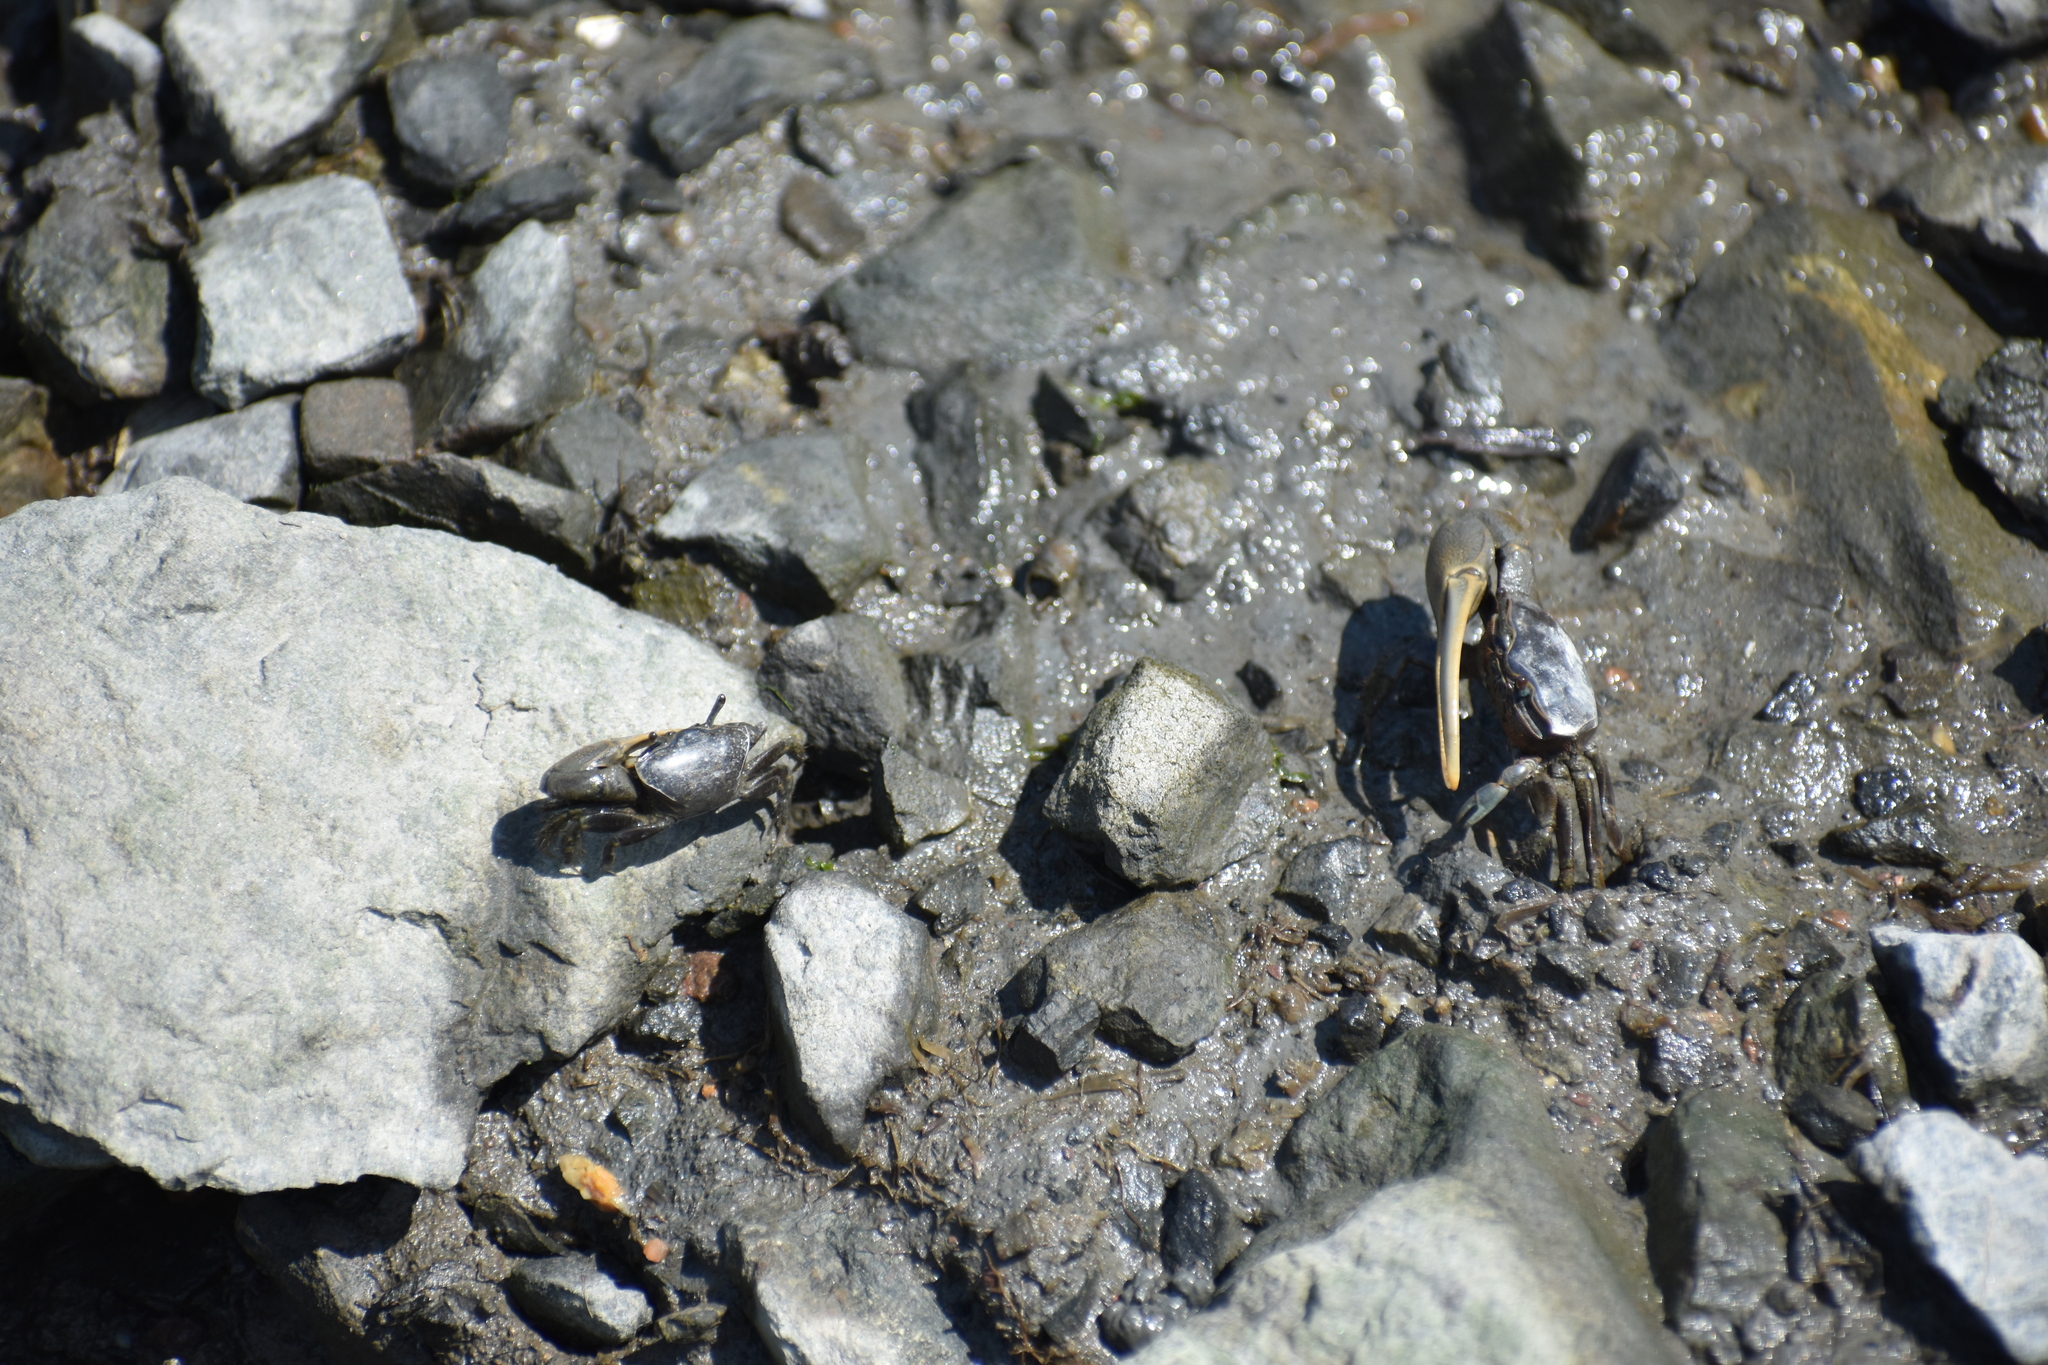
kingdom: Animalia
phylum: Arthropoda
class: Malacostraca
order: Decapoda
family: Ocypodidae
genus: Minuca
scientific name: Minuca pugnax
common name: Mud fiddler crab
